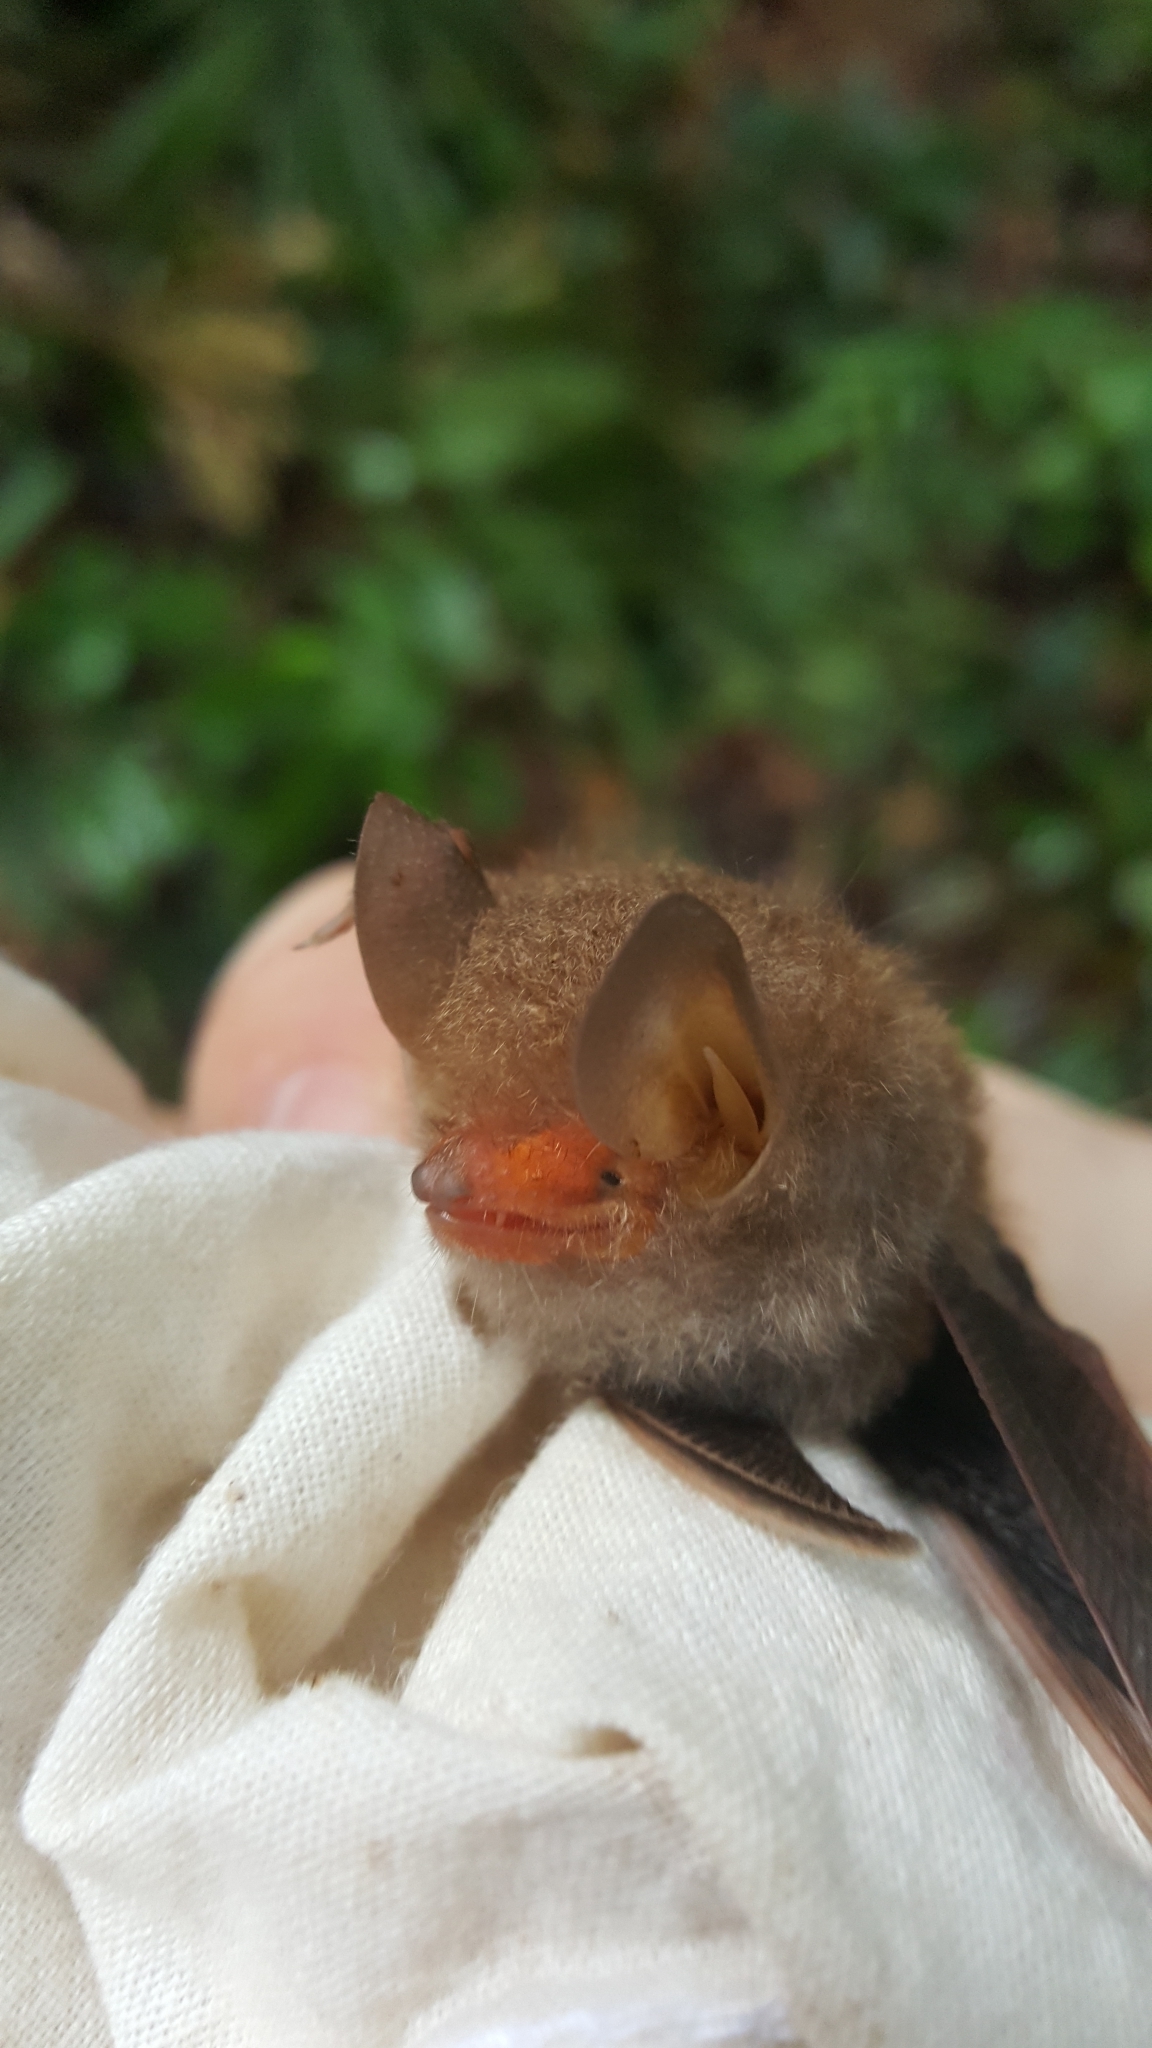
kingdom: Animalia
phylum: Chordata
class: Mammalia
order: Chiroptera
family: Vespertilionidae
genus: Kerivoula
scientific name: Kerivoula pellucida
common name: Clear-winged woolly bat
